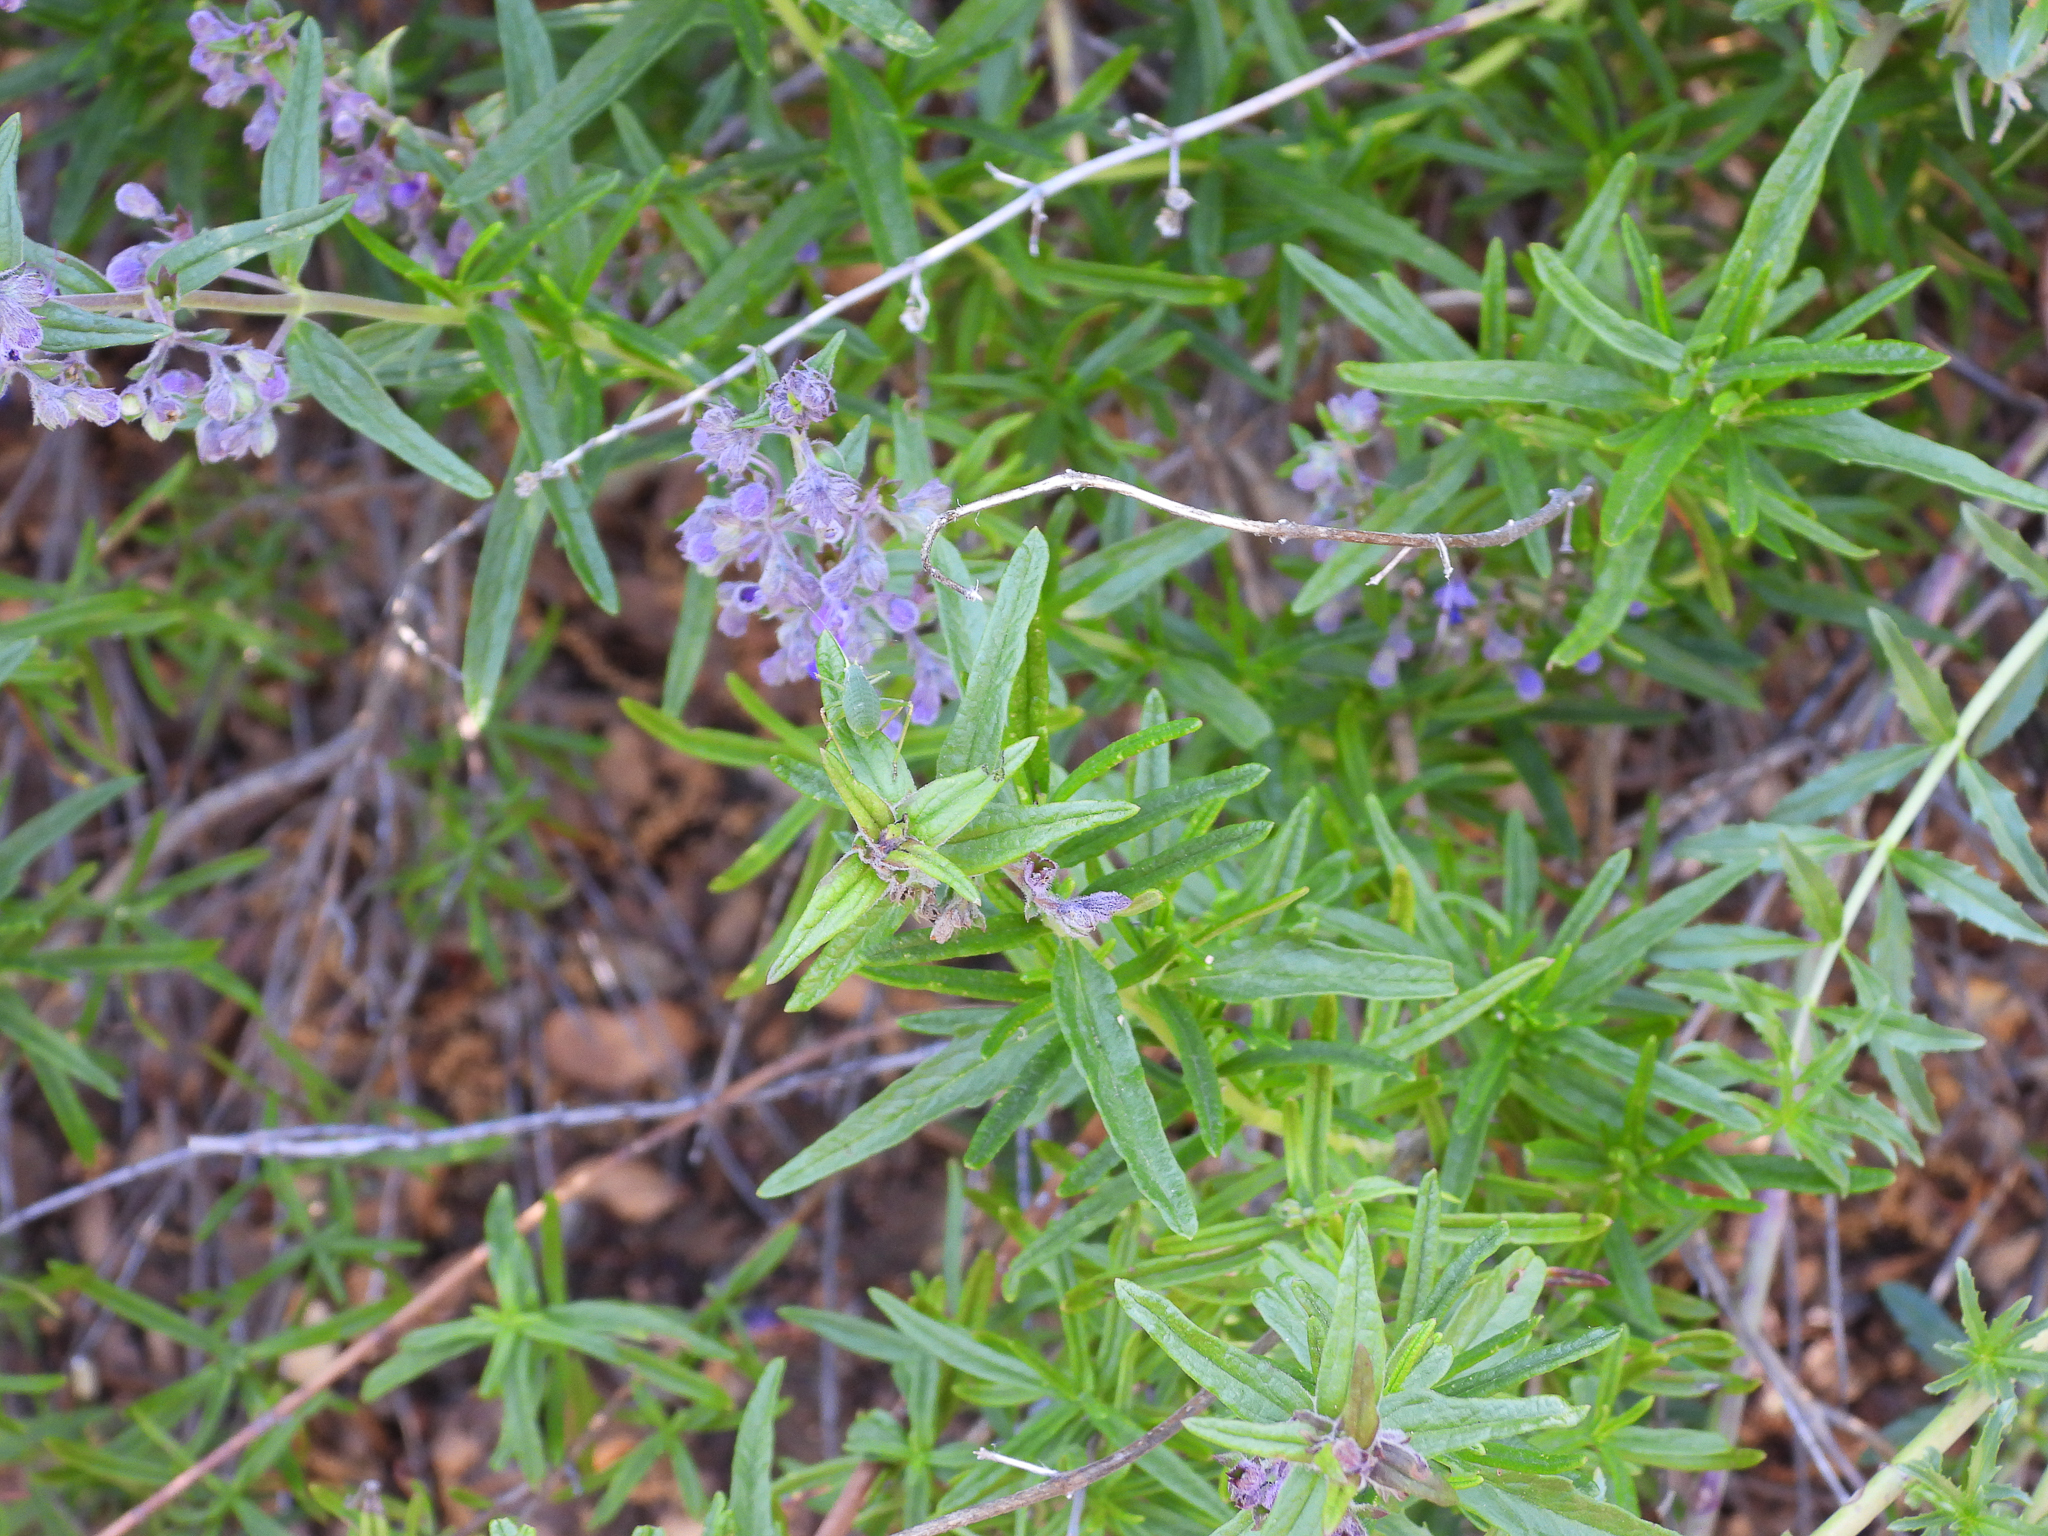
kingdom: Plantae
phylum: Tracheophyta
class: Magnoliopsida
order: Lamiales
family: Lamiaceae
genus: Trichostema
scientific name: Trichostema parishii
